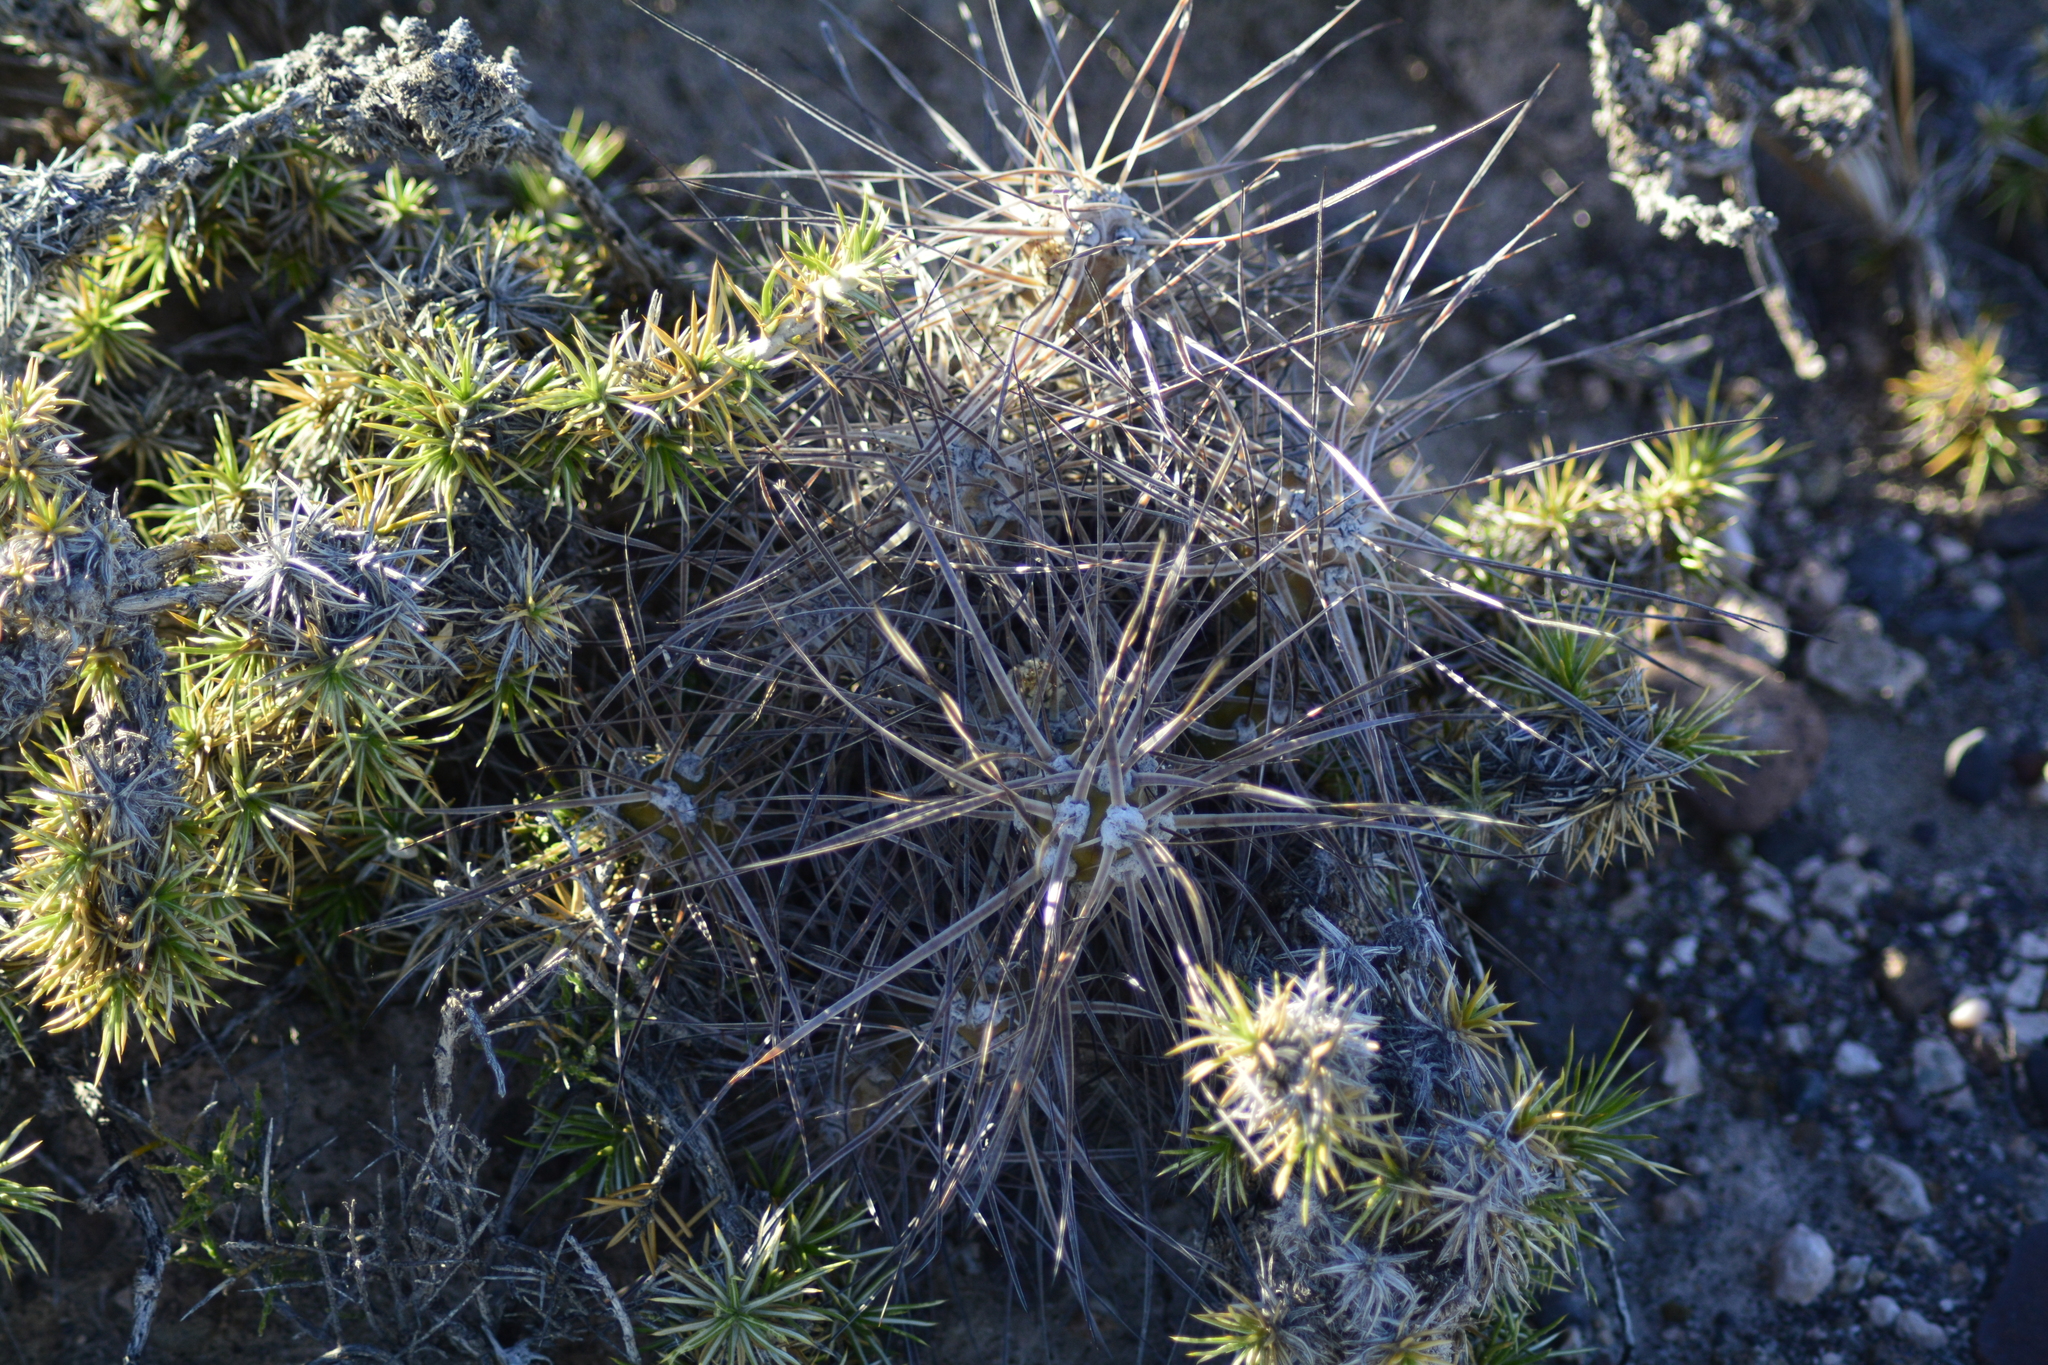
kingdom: Plantae
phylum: Tracheophyta
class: Magnoliopsida
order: Caryophyllales
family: Cactaceae
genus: Maihueniopsis
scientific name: Maihueniopsis hickenii
